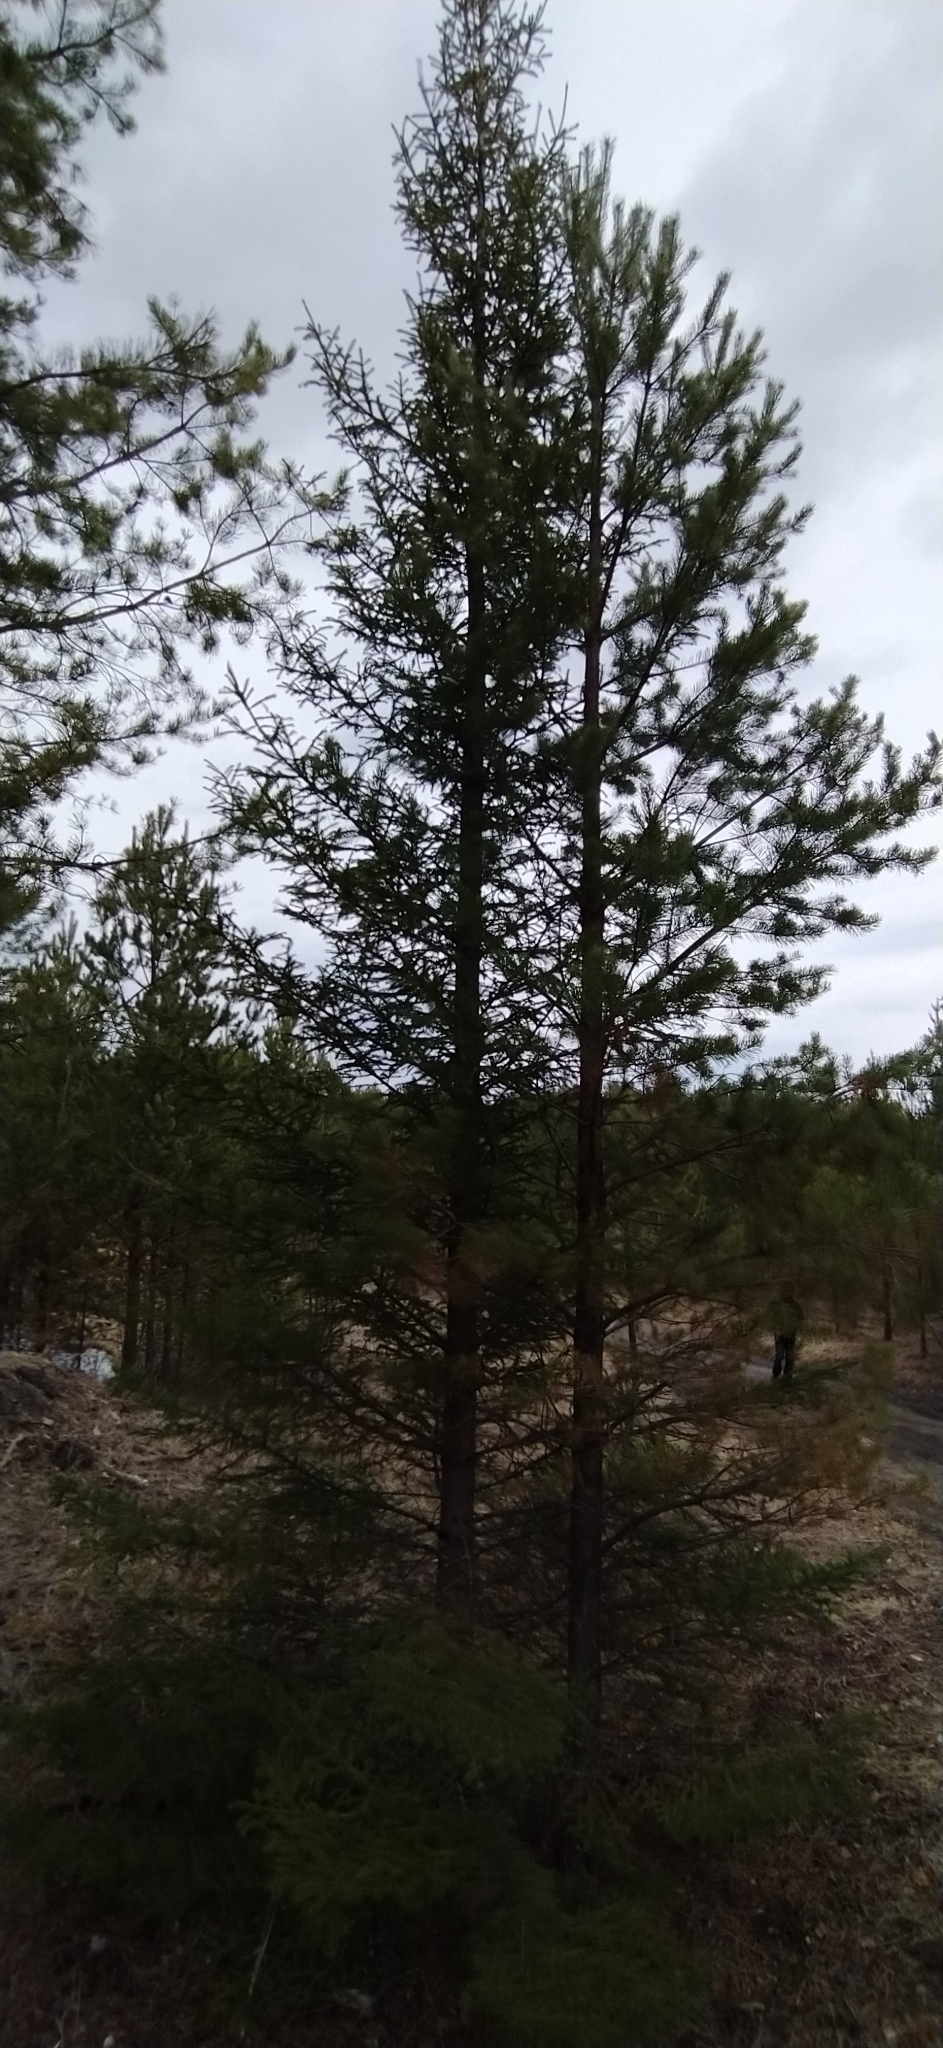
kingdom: Plantae
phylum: Tracheophyta
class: Pinopsida
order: Pinales
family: Pinaceae
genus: Picea
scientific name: Picea obovata
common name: Siberian spruce
